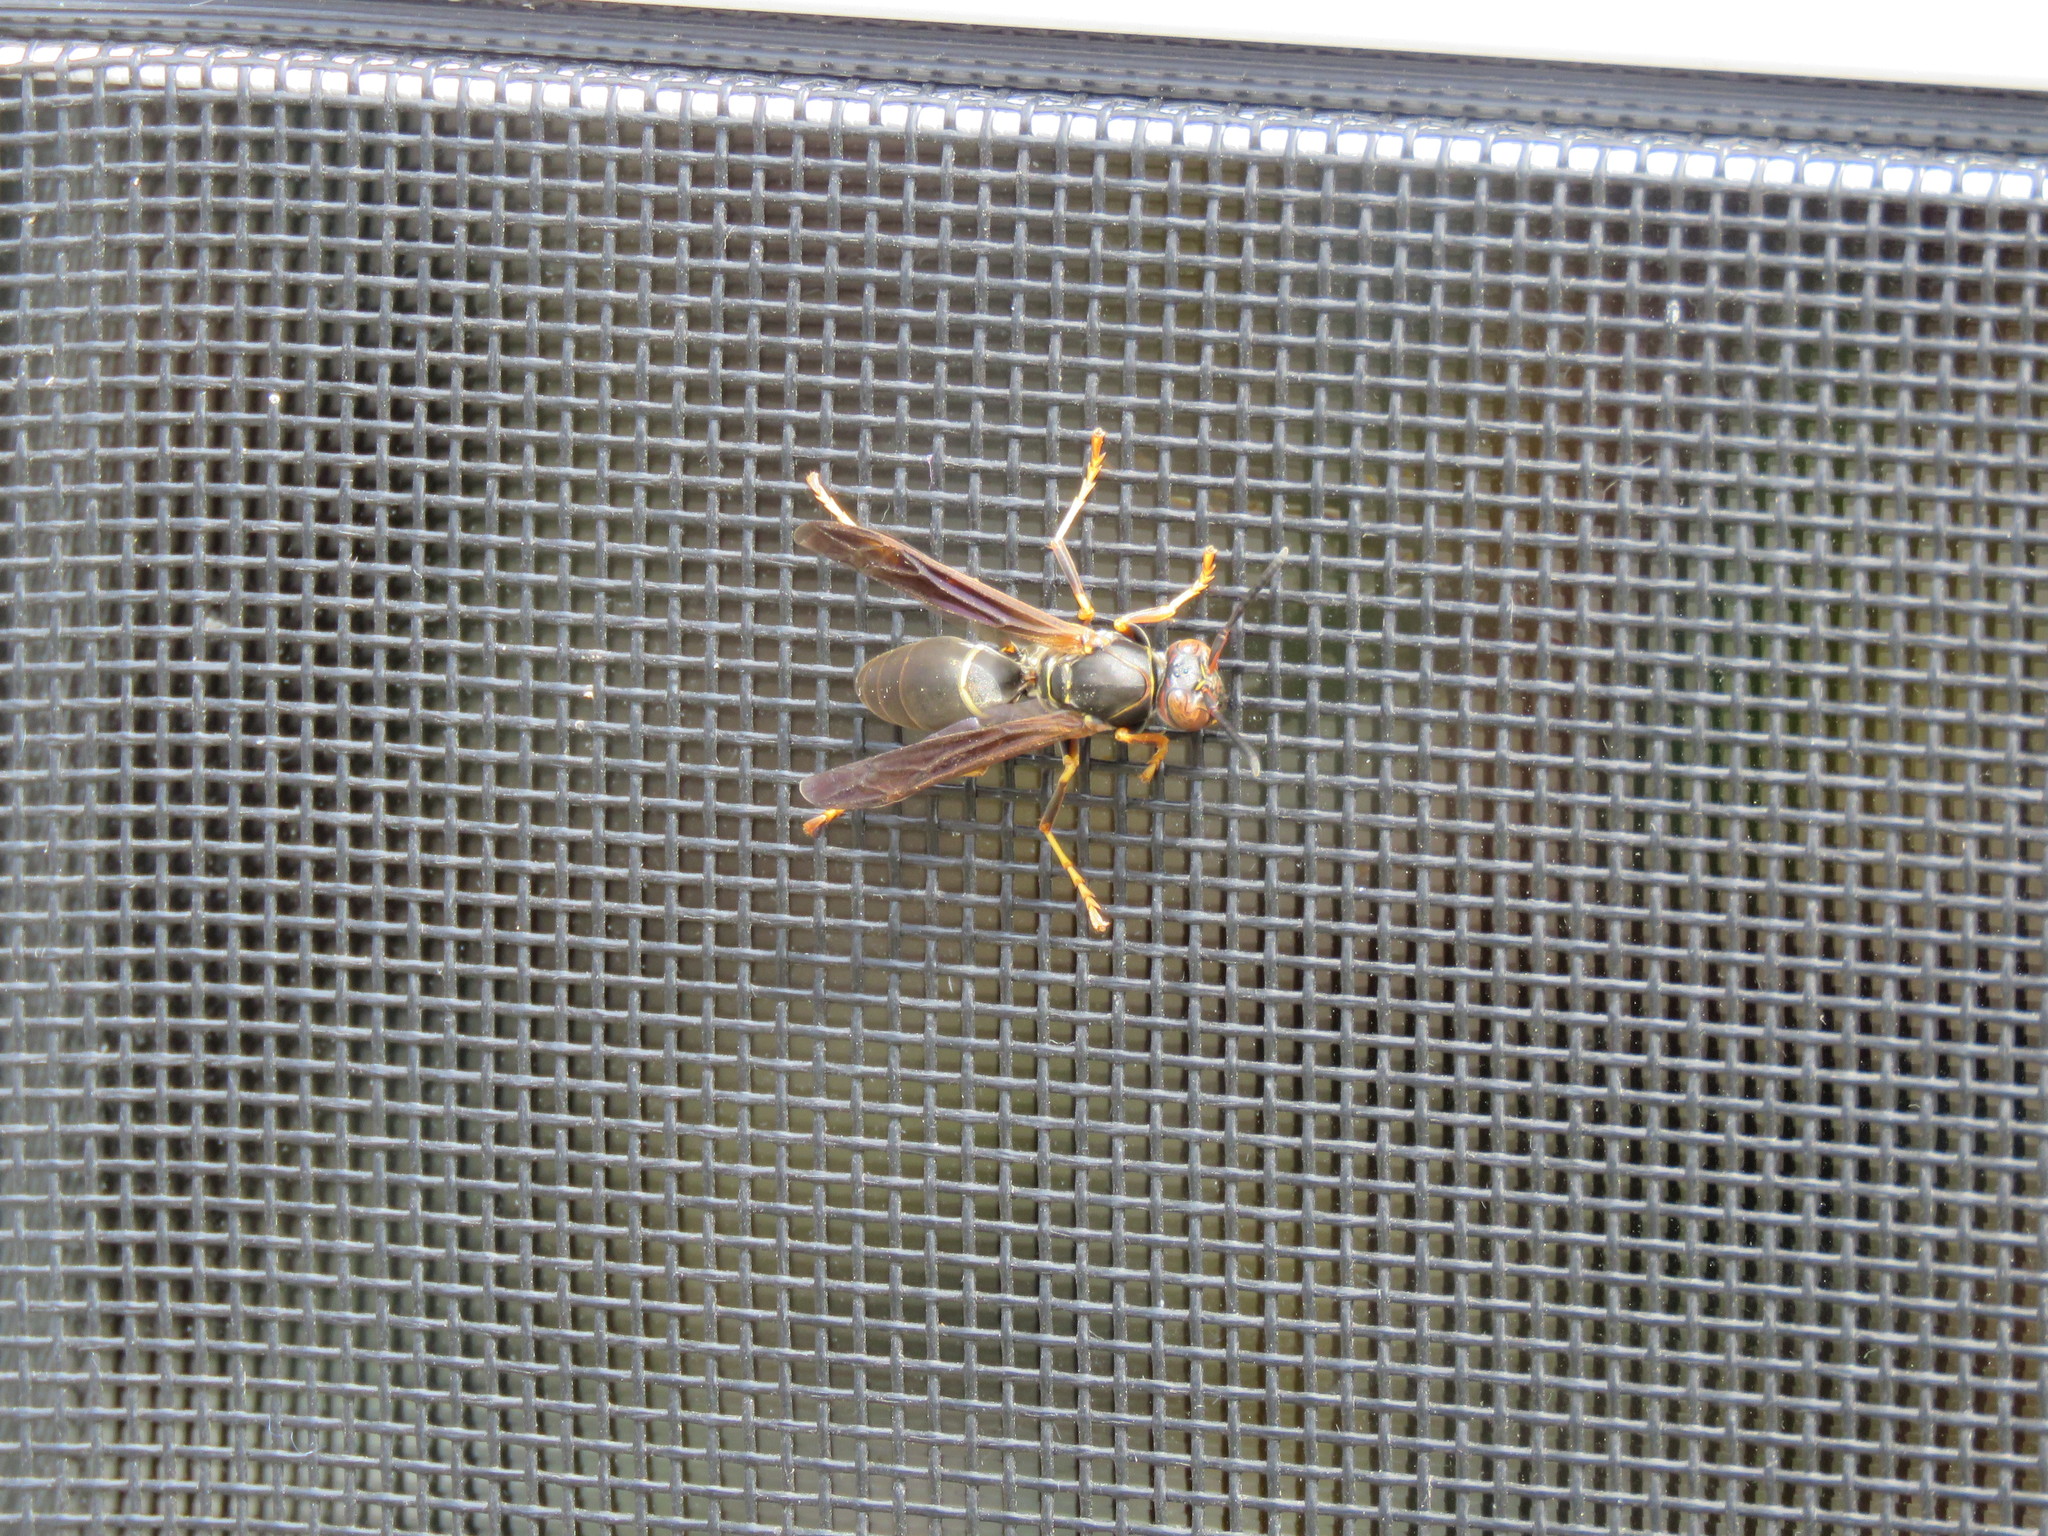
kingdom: Animalia
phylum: Arthropoda
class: Insecta
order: Hymenoptera
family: Eumenidae
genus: Polistes
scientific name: Polistes fuscatus
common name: Dark paper wasp
